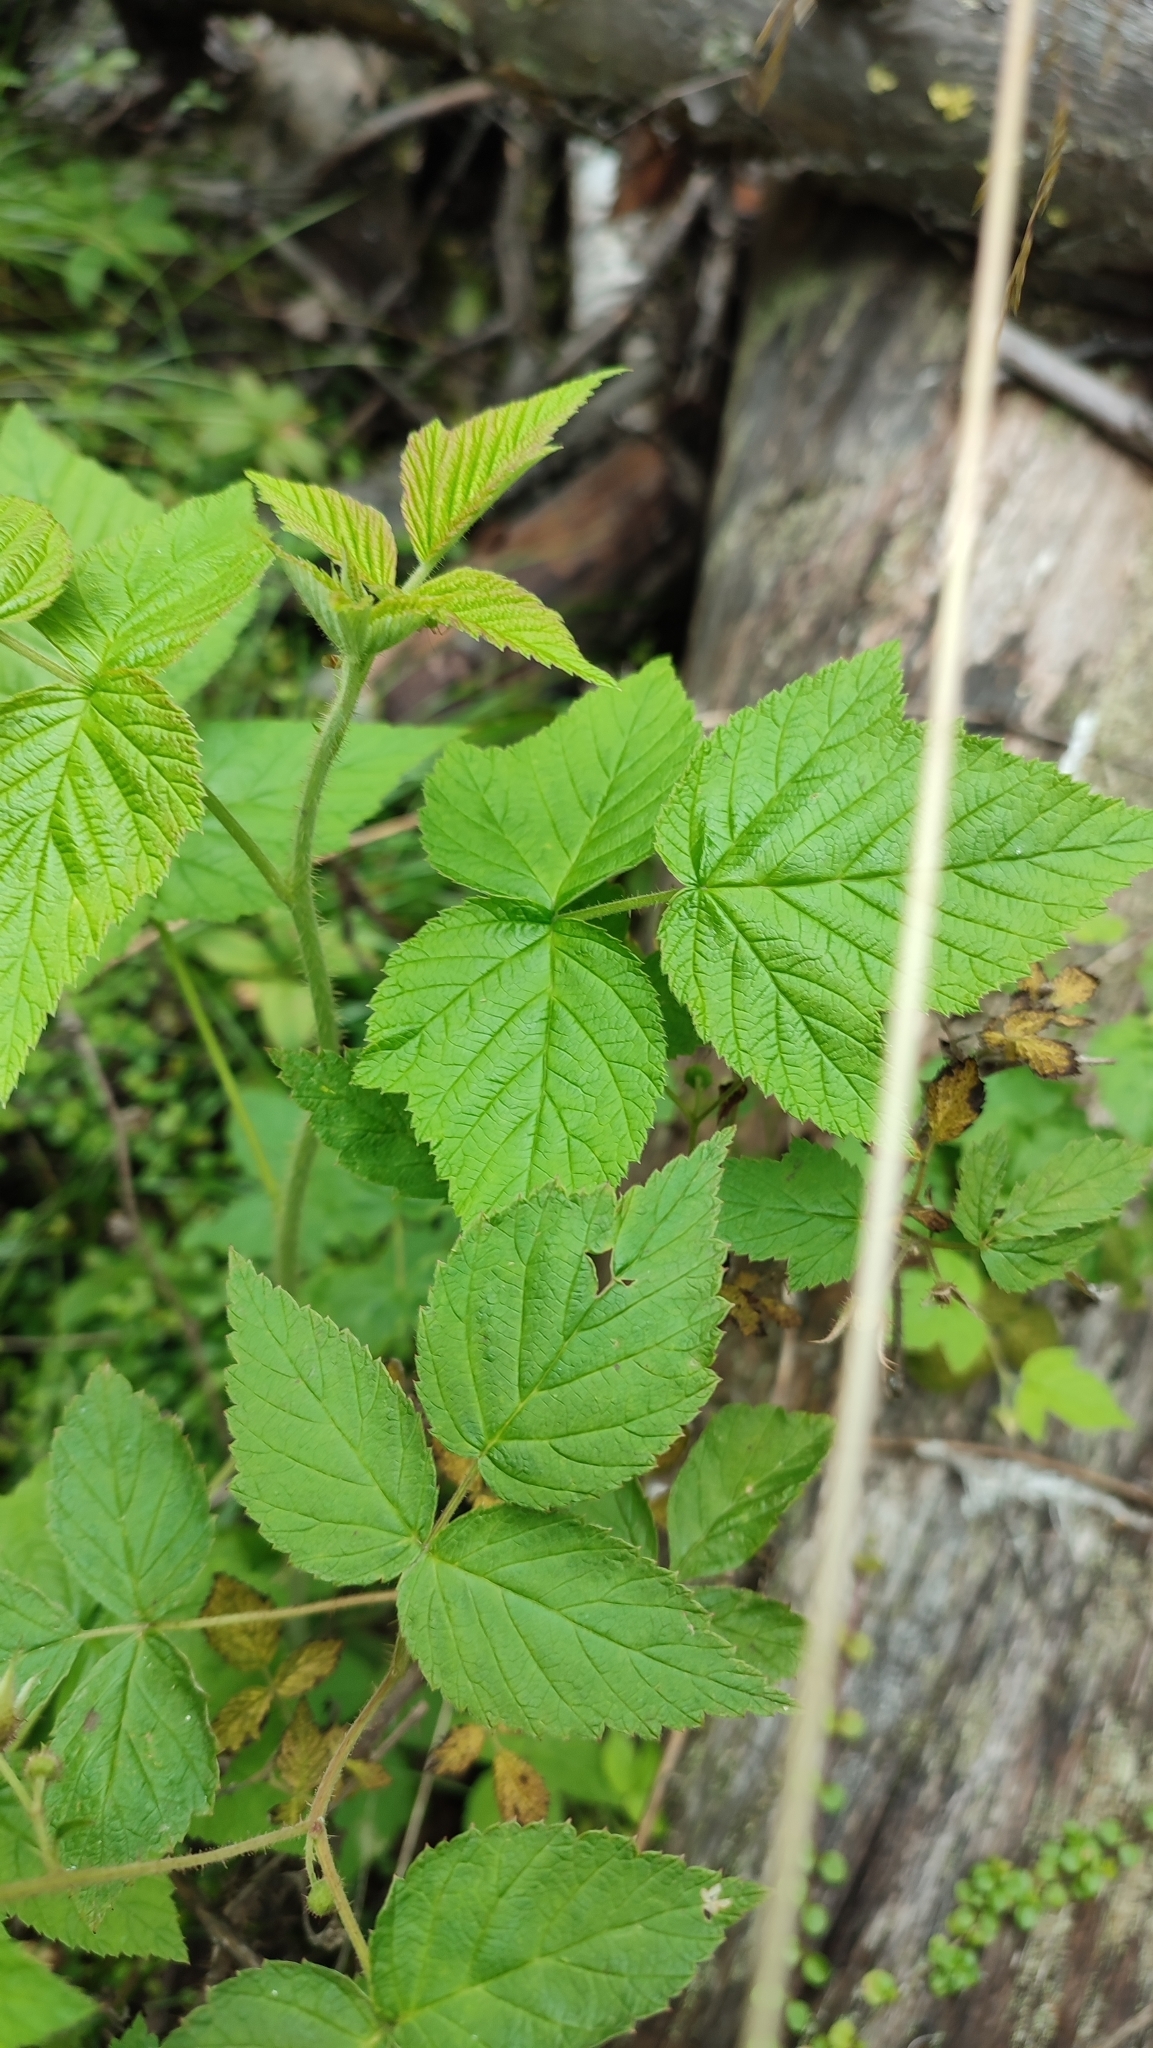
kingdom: Plantae
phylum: Tracheophyta
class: Magnoliopsida
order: Rosales
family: Rosaceae
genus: Rubus
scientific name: Rubus idaeus
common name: Raspberry
